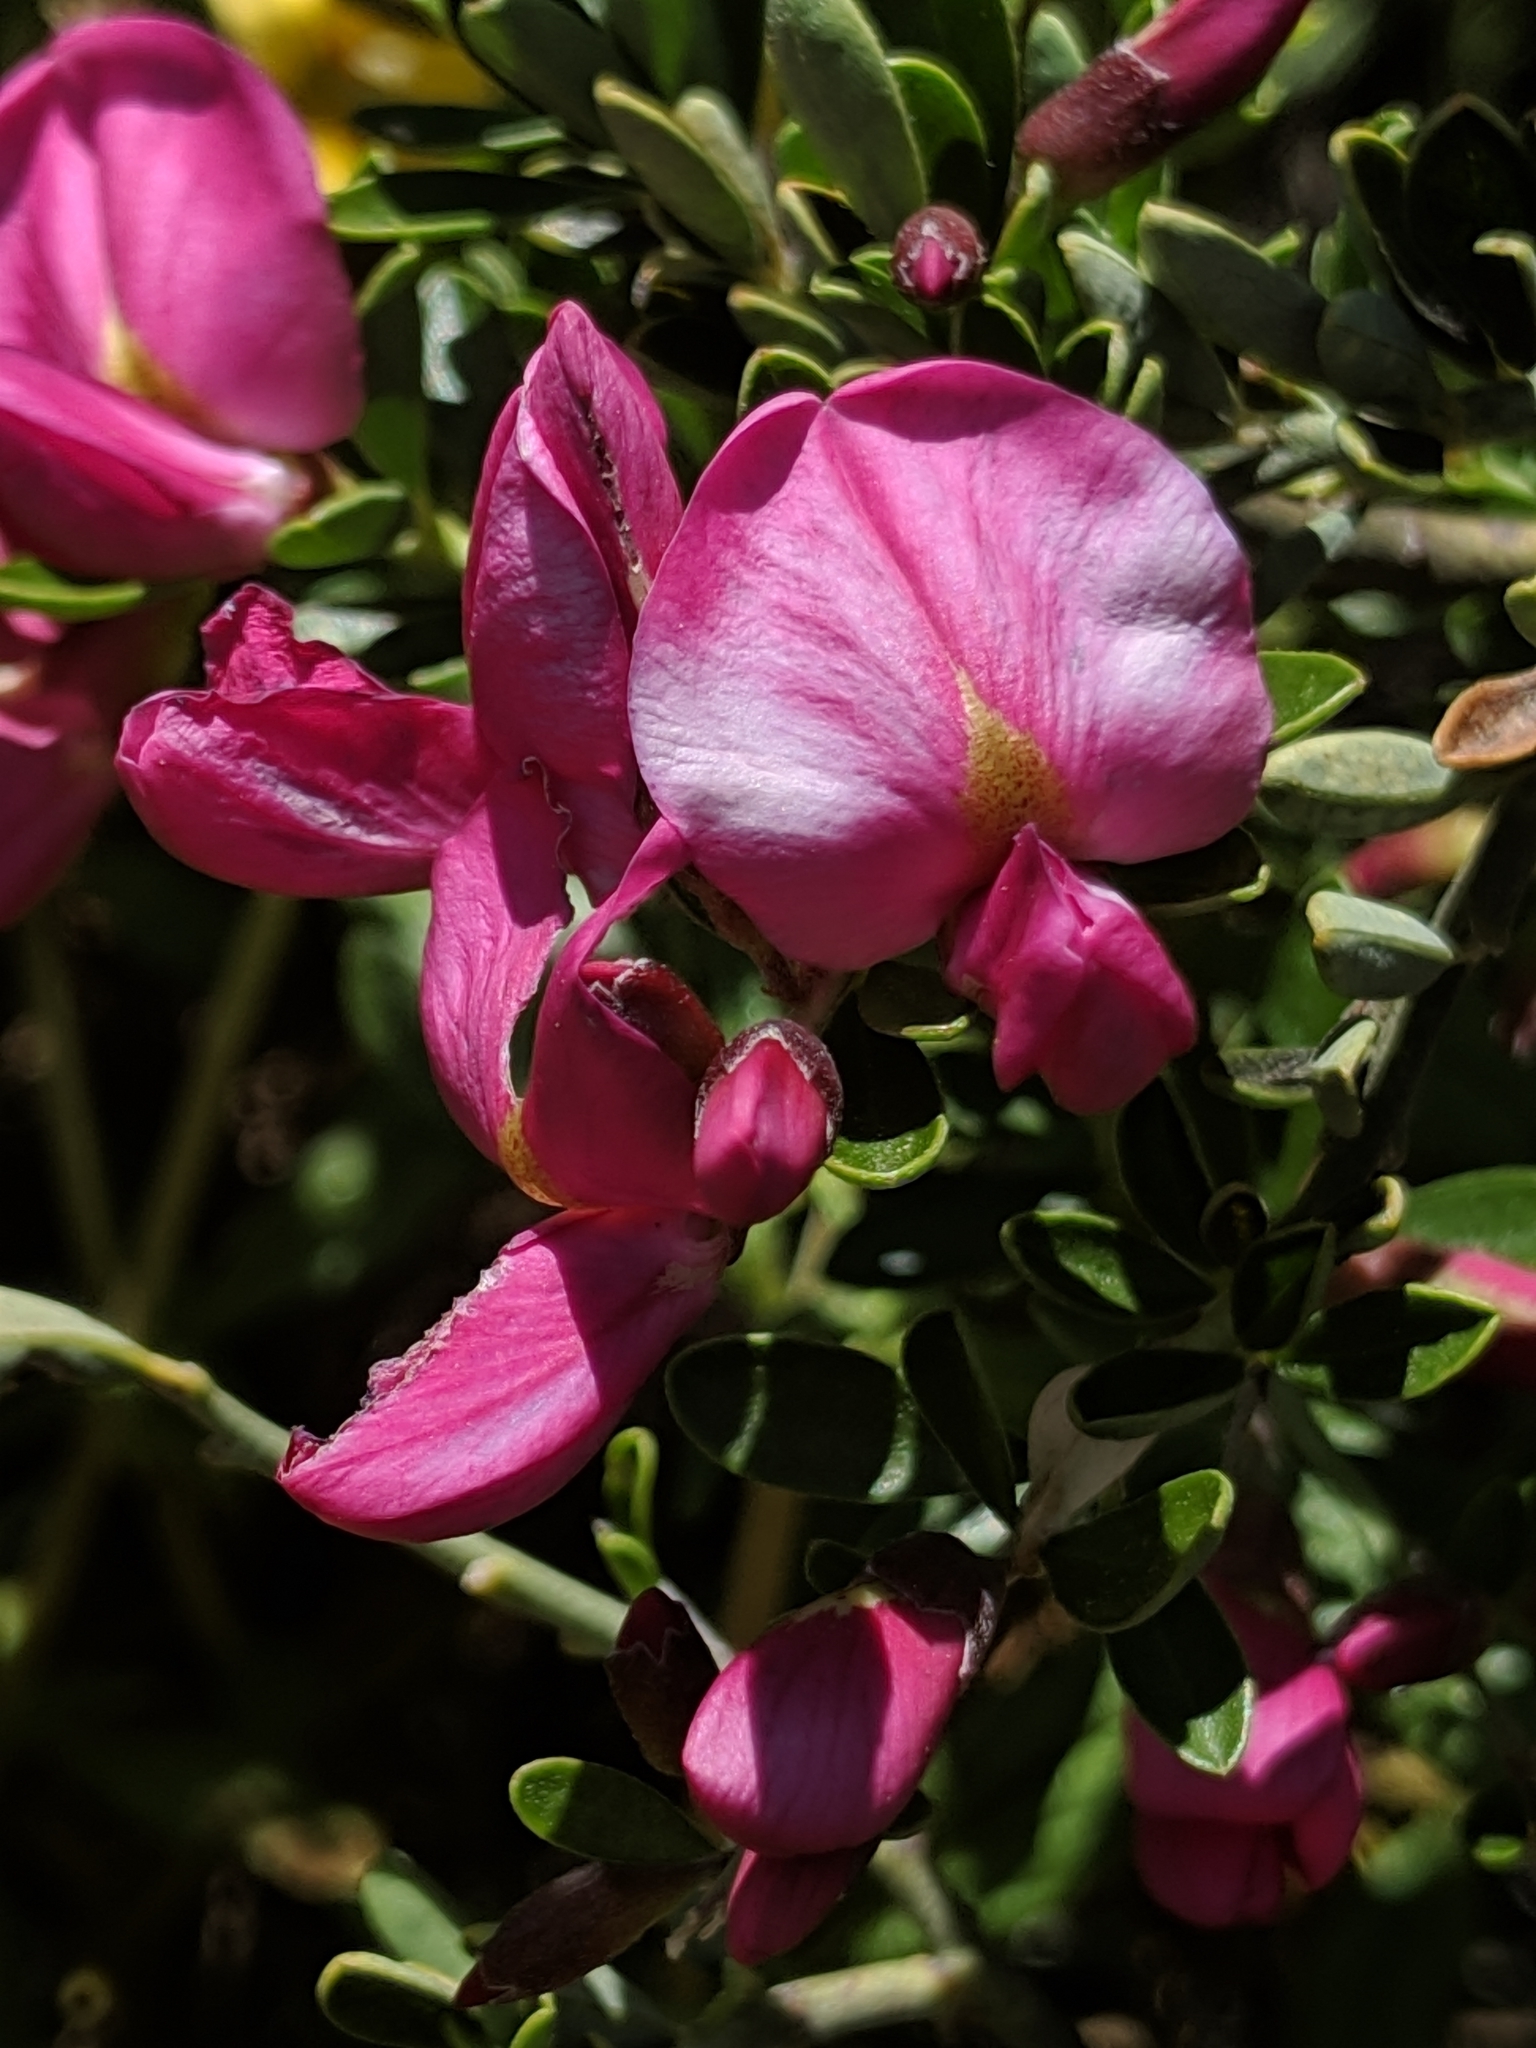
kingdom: Plantae
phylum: Tracheophyta
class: Magnoliopsida
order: Fabales
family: Fabaceae
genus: Pickeringia
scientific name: Pickeringia montana
